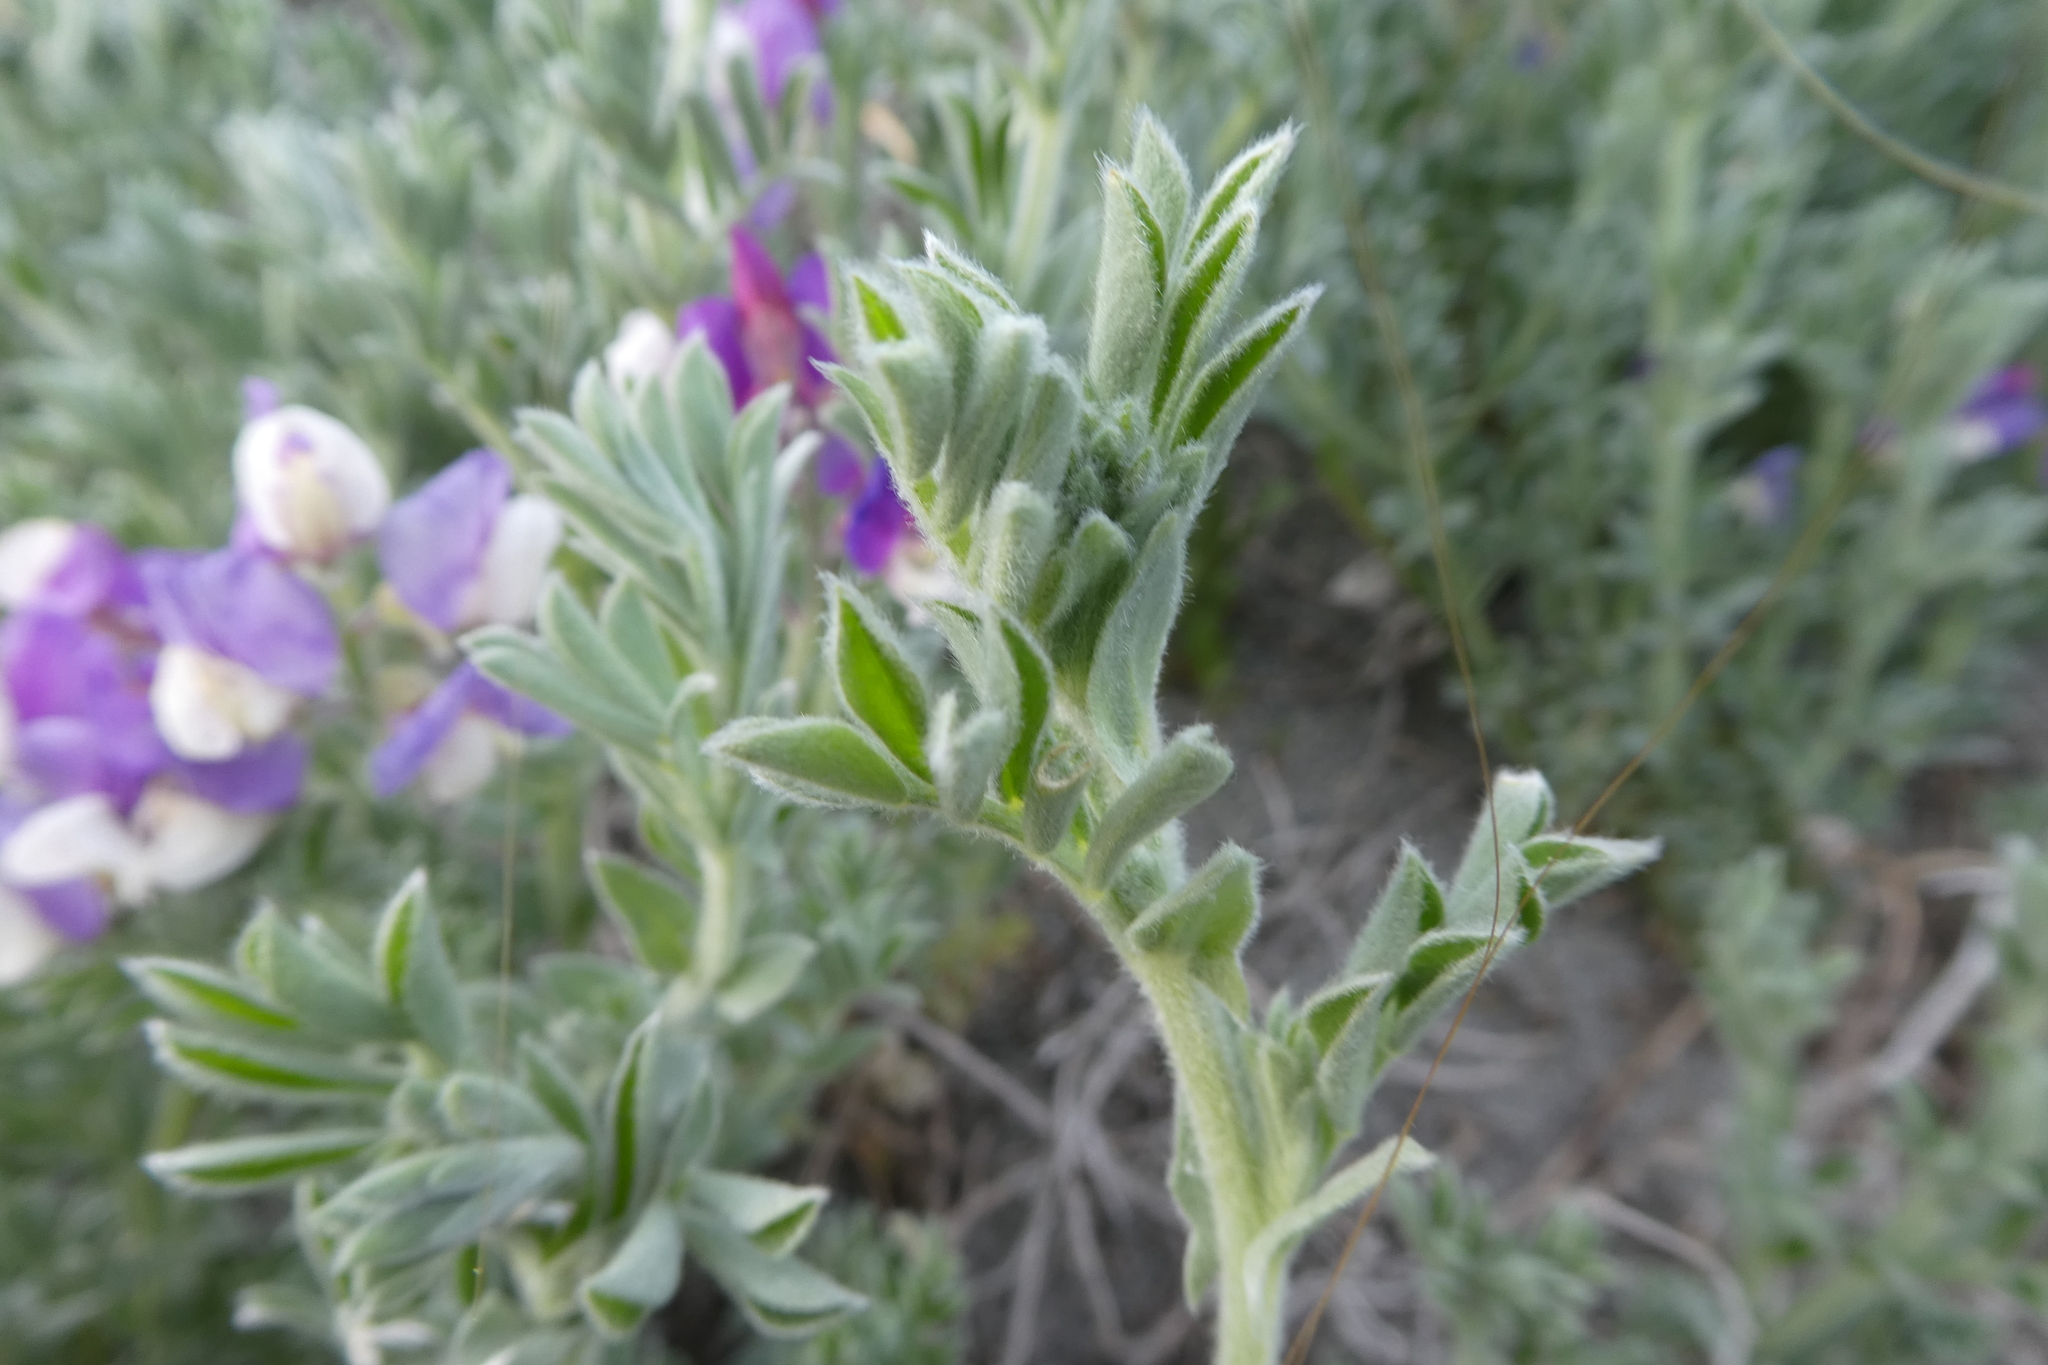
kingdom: Plantae
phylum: Tracheophyta
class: Magnoliopsida
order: Fabales
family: Fabaceae
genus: Lathyrus
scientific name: Lathyrus littoralis
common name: Dune sweet pea
